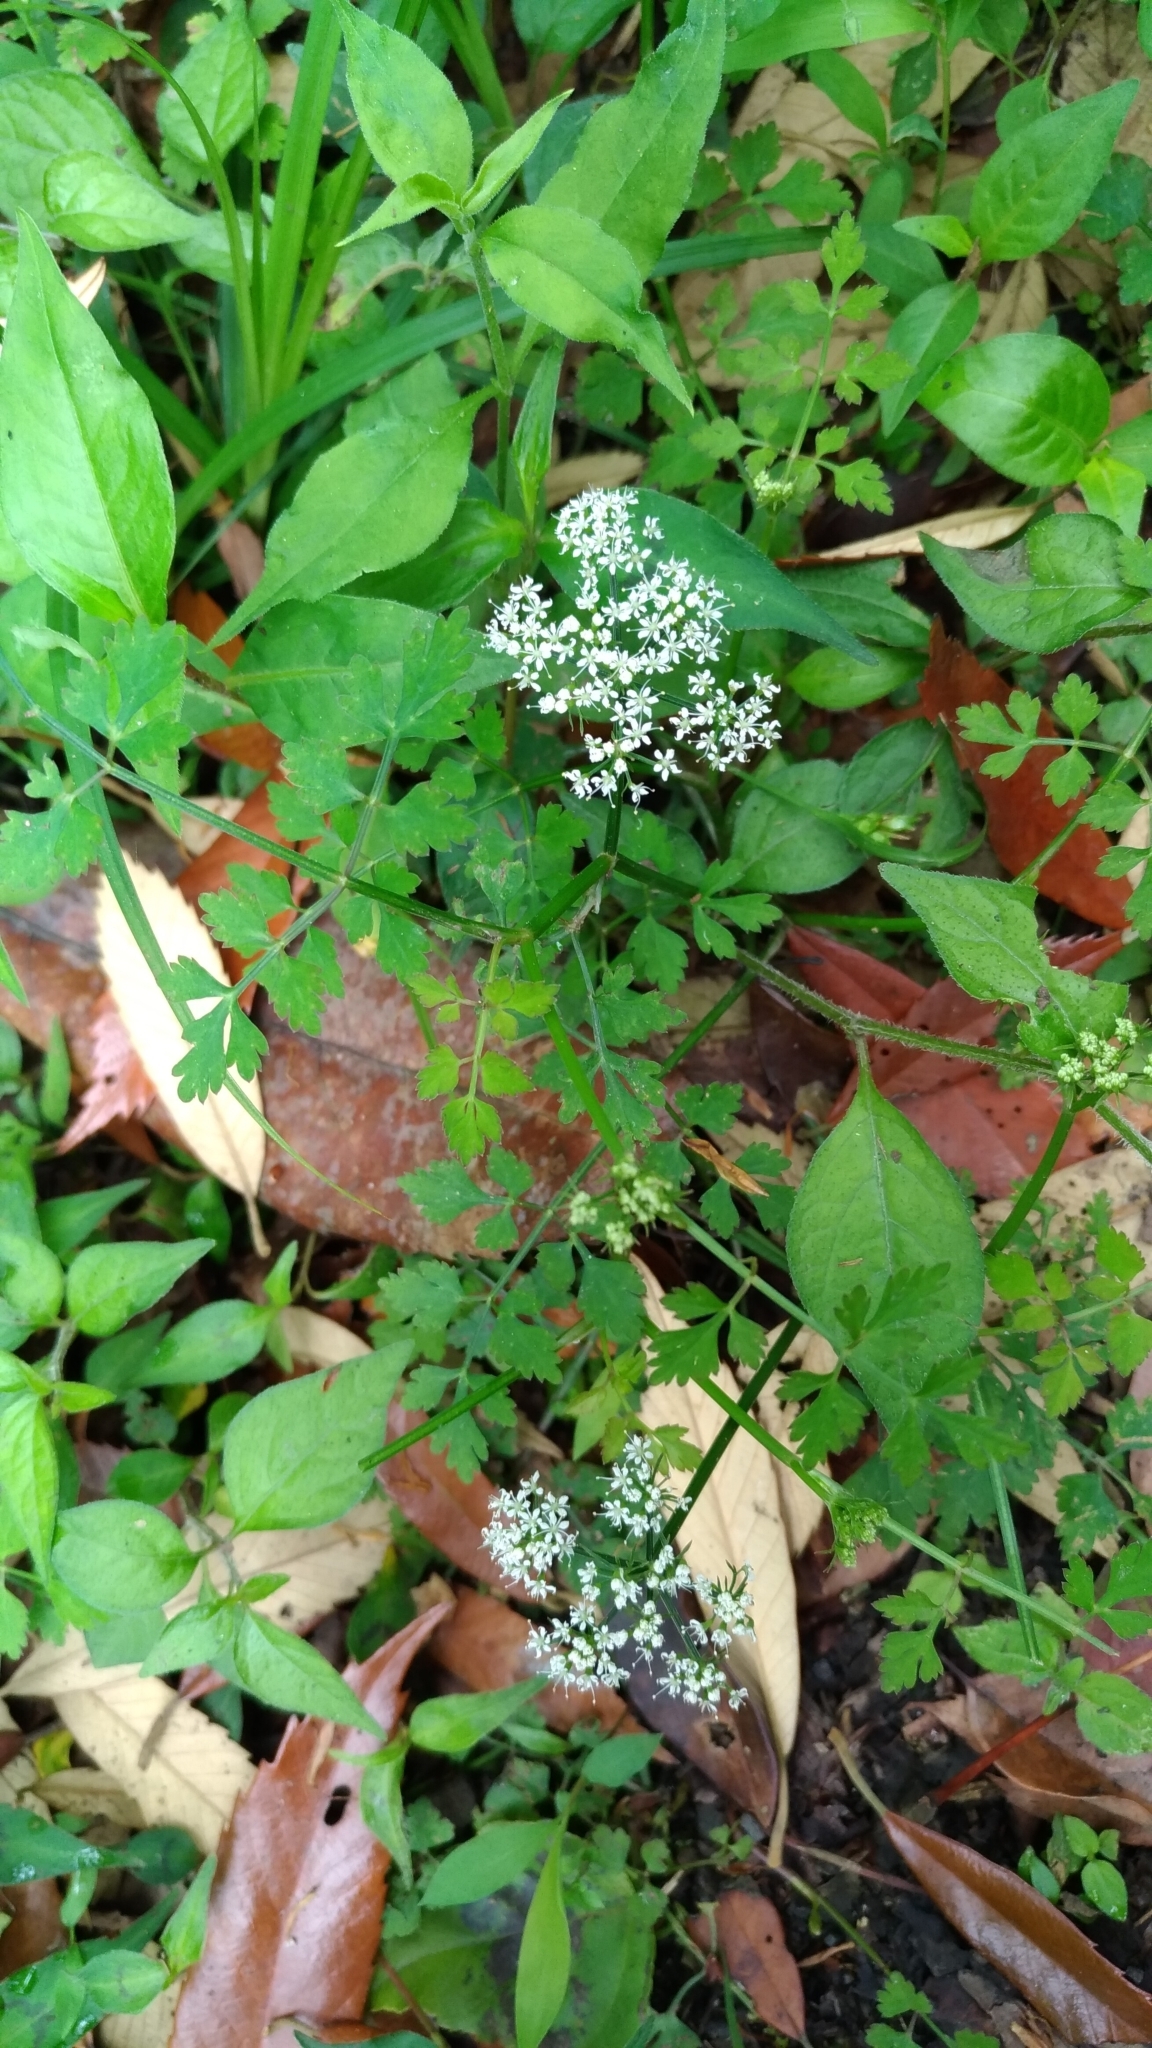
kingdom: Plantae
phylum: Tracheophyta
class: Magnoliopsida
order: Apiales
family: Apiaceae
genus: Oenanthe
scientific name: Oenanthe javanica
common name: Java water-dropwort
